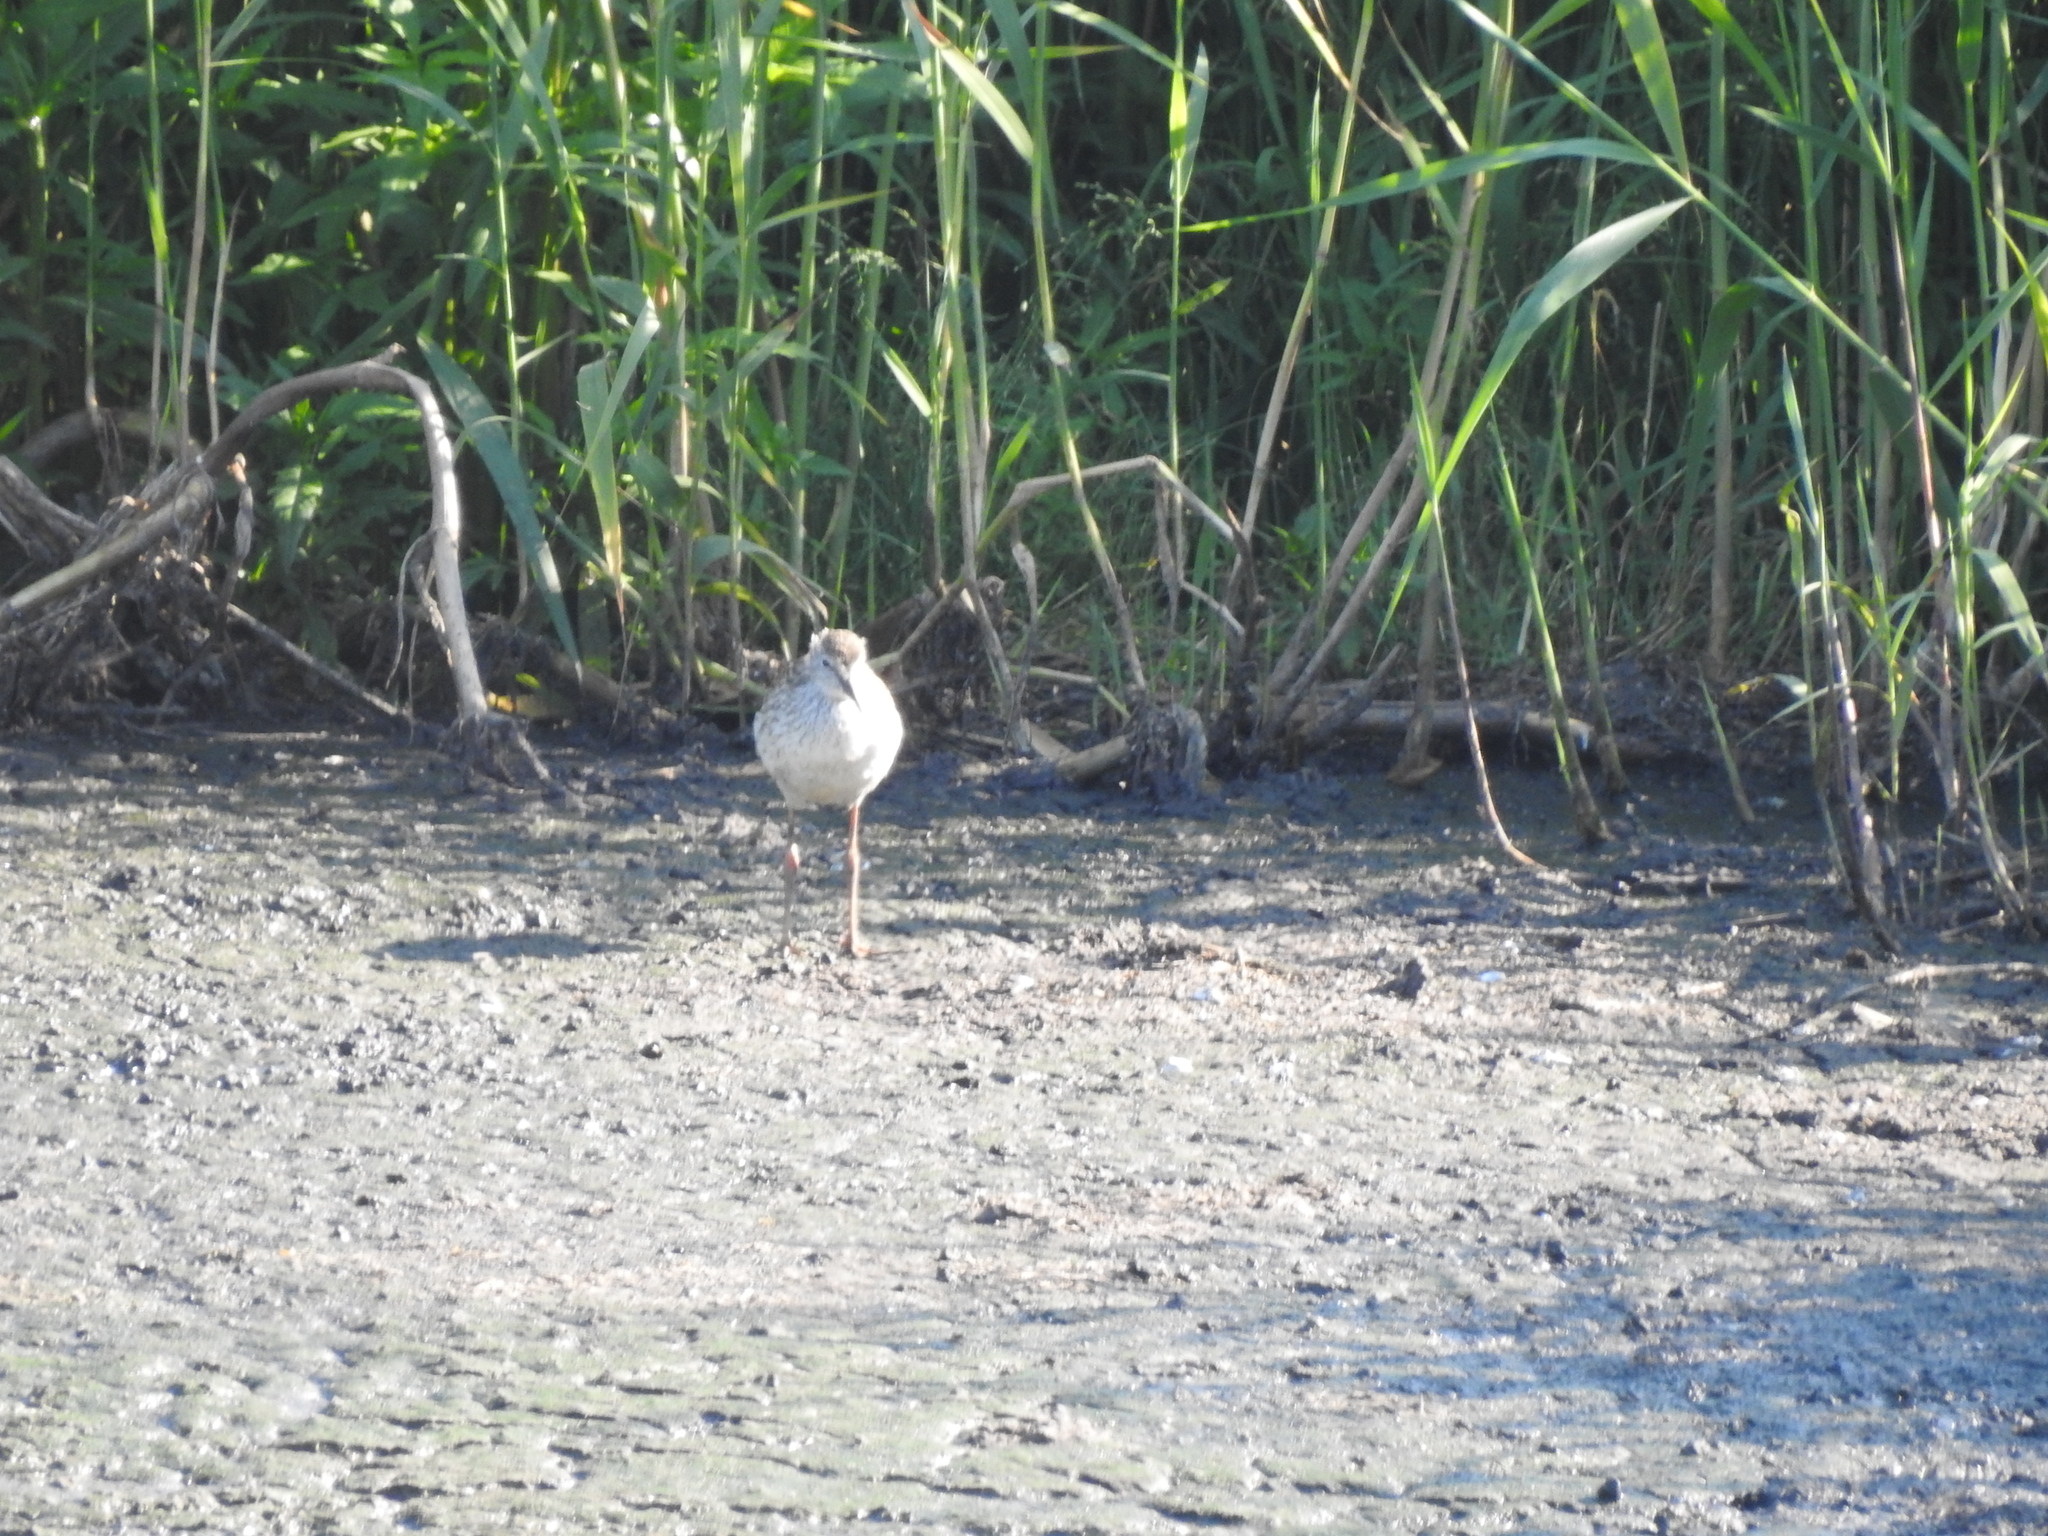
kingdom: Animalia
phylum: Chordata
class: Aves
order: Charadriiformes
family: Scolopacidae
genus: Tringa
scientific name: Tringa totanus
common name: Common redshank
